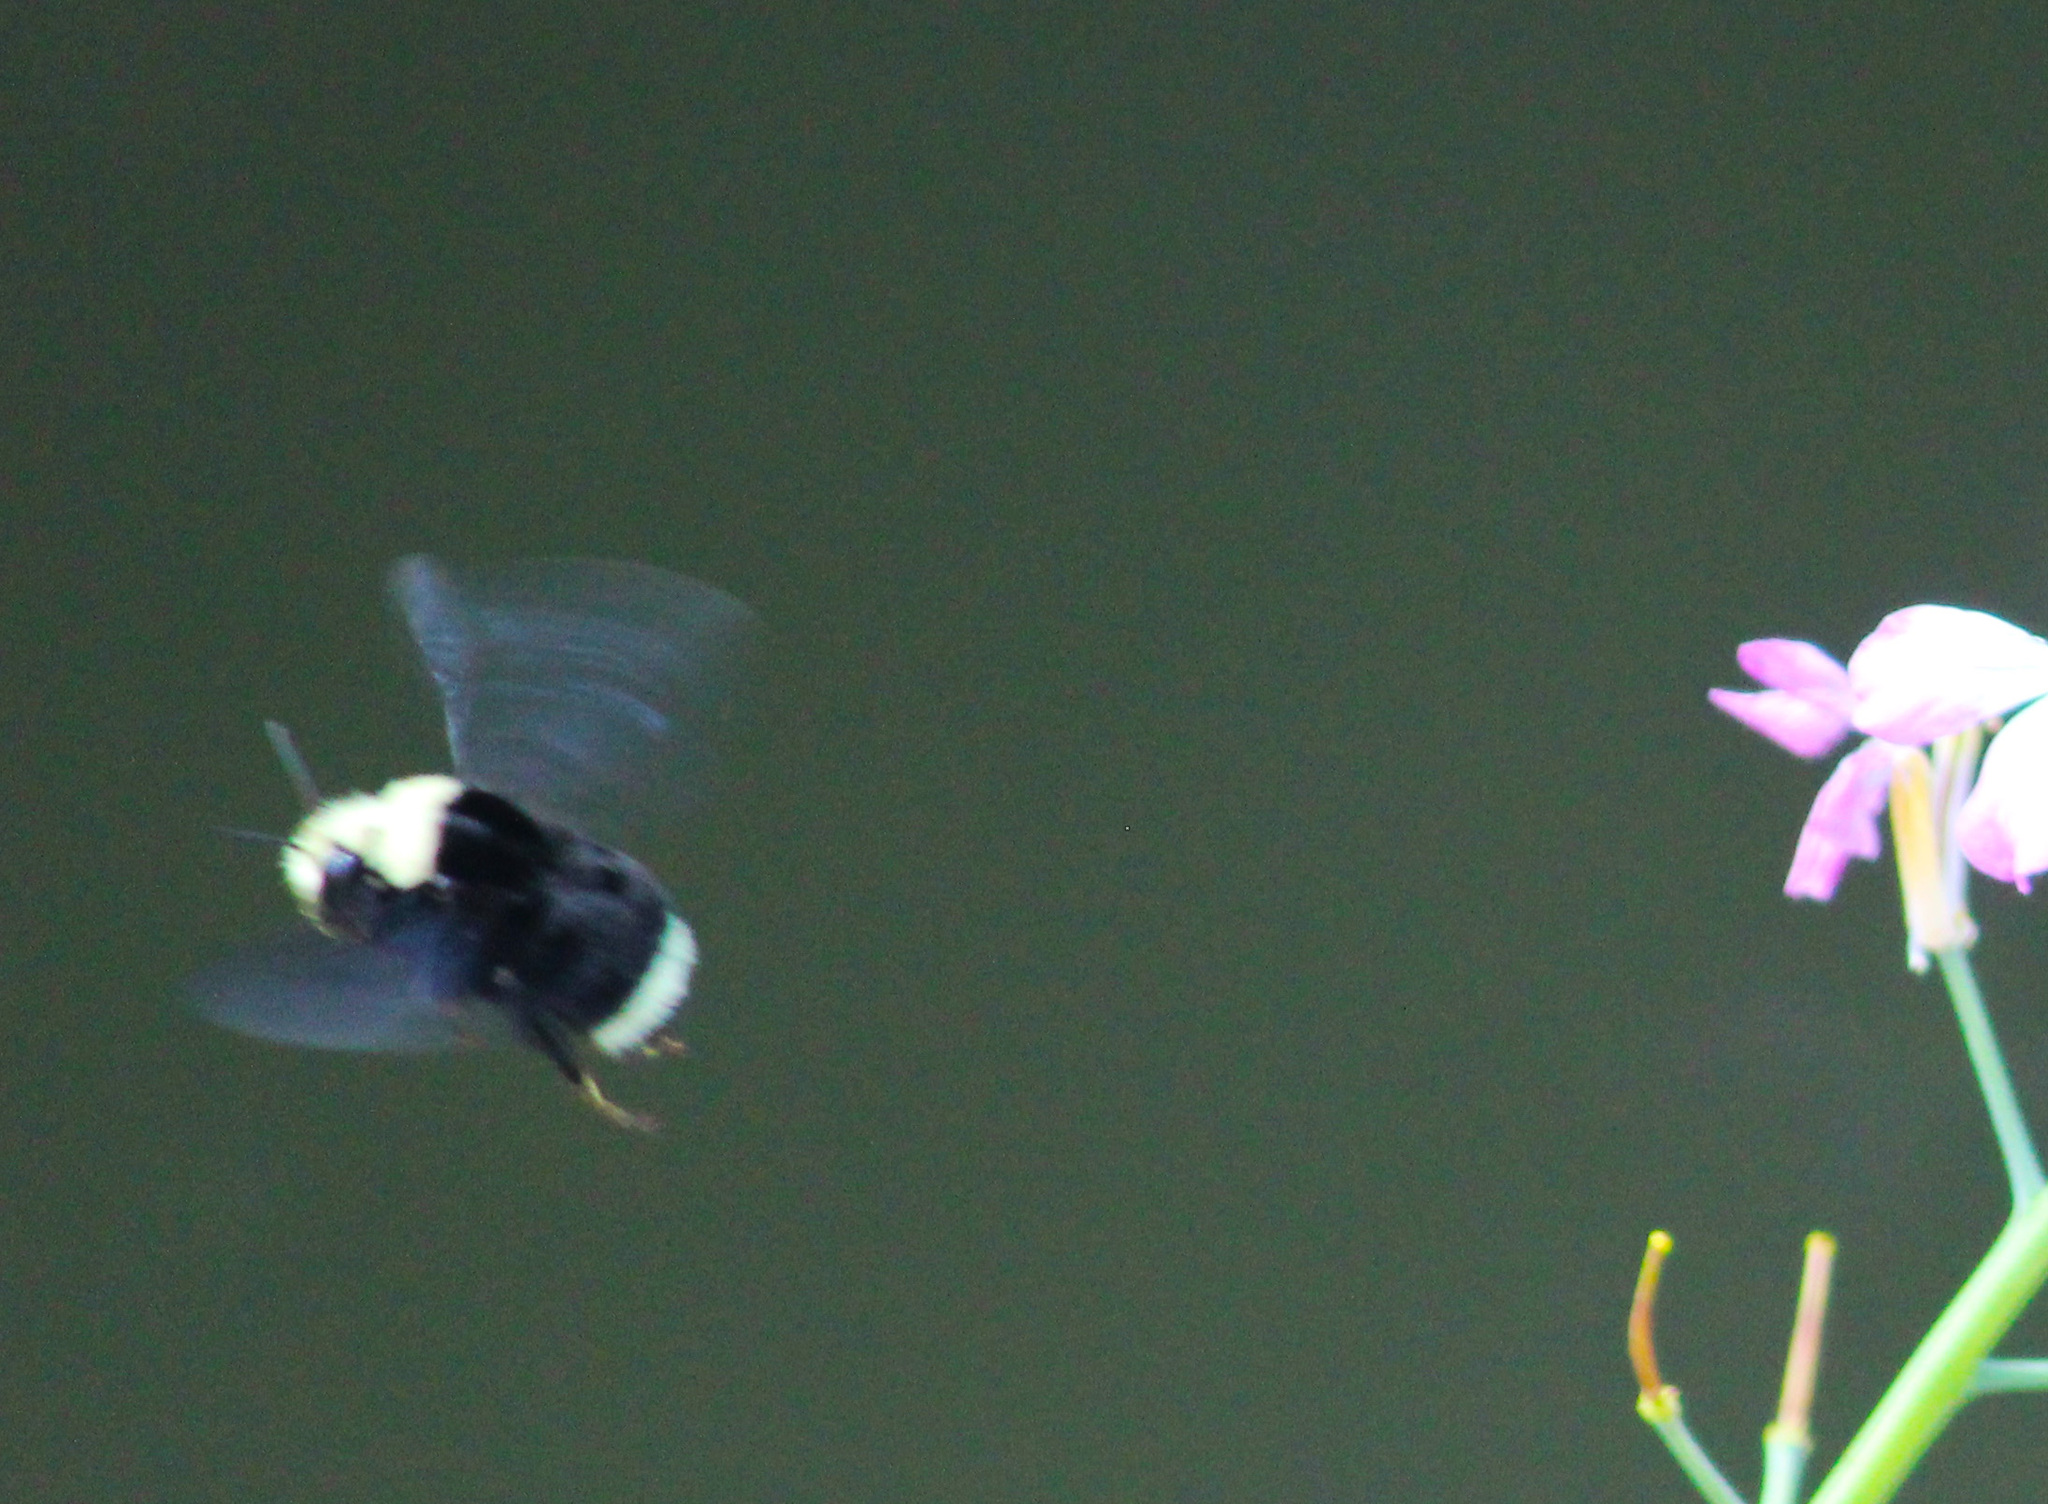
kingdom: Animalia
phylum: Arthropoda
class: Insecta
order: Hymenoptera
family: Apidae
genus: Bombus
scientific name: Bombus vosnesenskii
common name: Vosnesensky bumble bee
